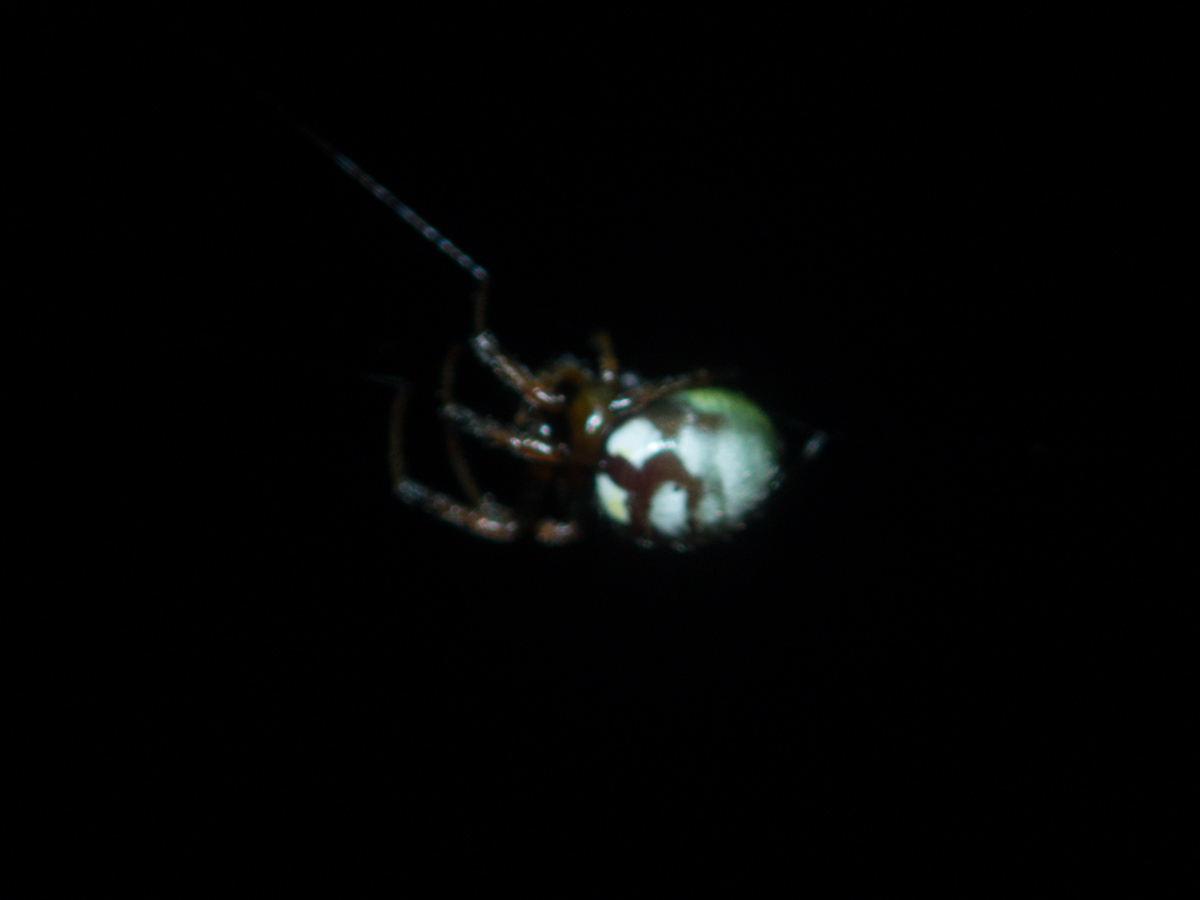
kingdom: Animalia
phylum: Arthropoda
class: Arachnida
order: Araneae
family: Araneidae
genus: Singa
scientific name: Singa perpolita
